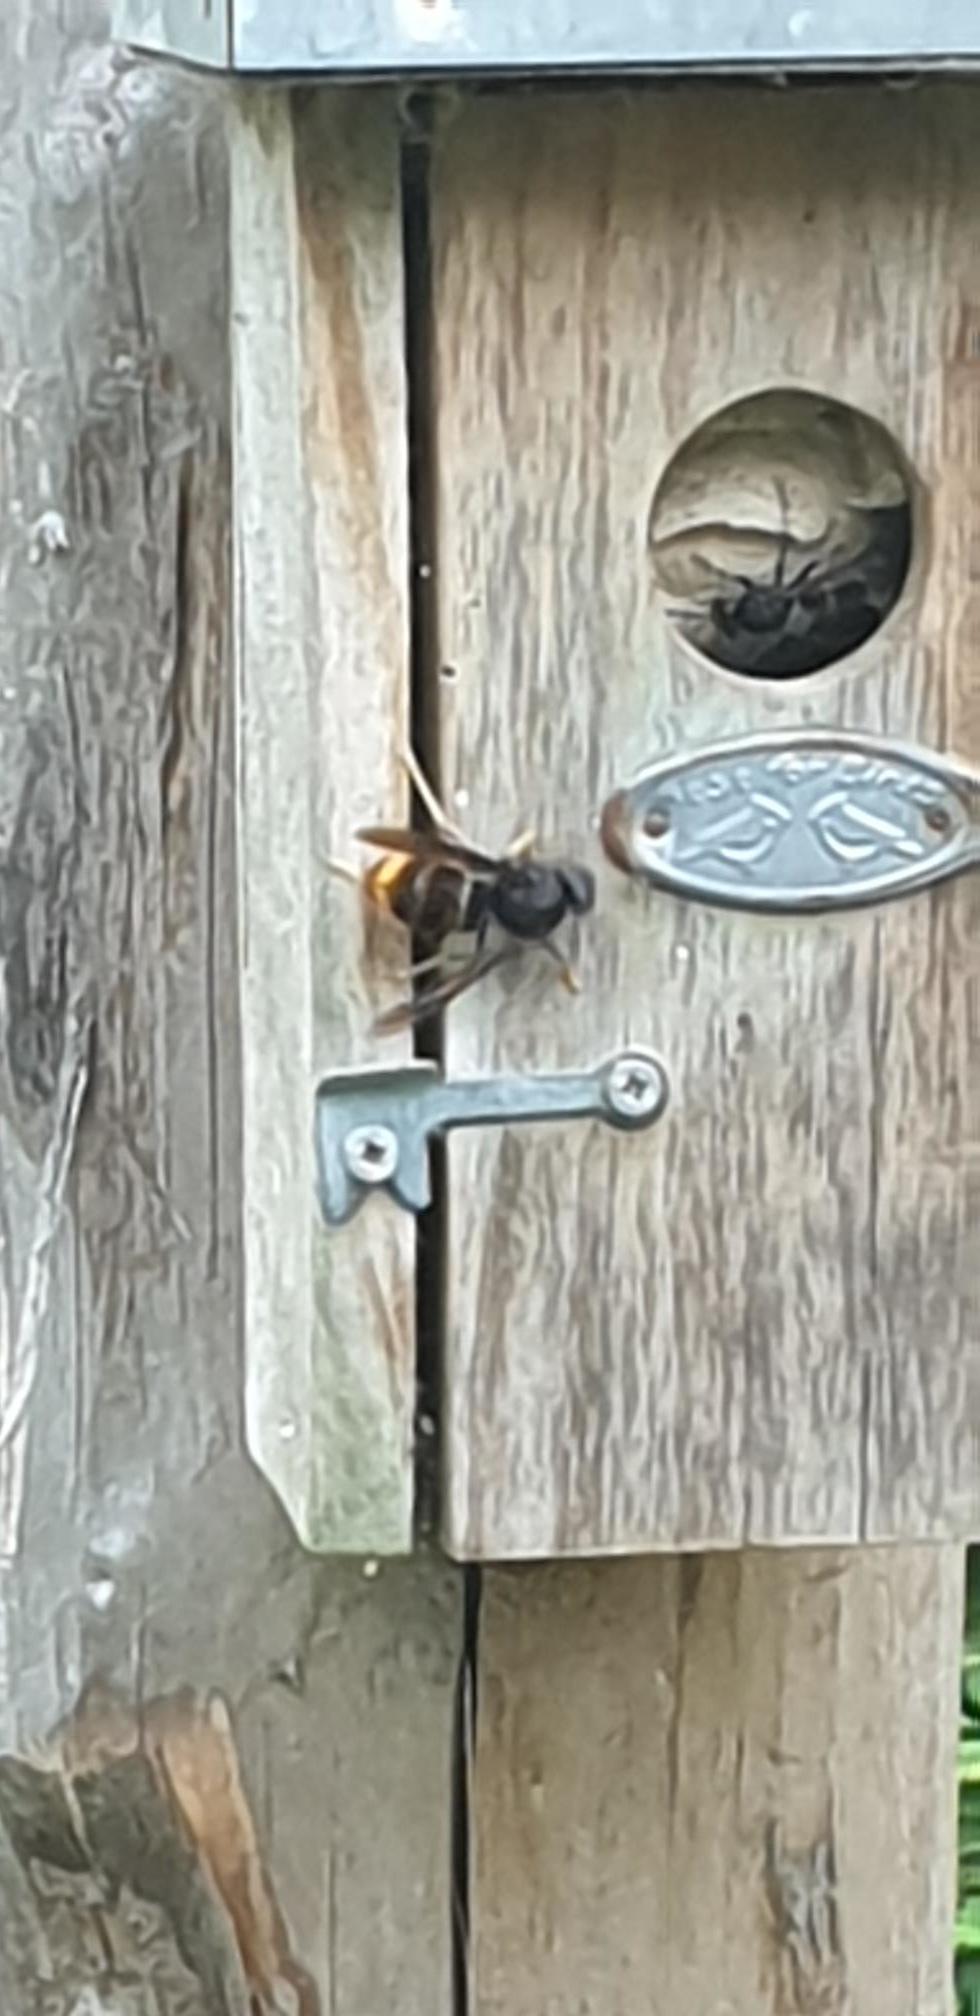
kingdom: Animalia
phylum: Arthropoda
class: Insecta
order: Hymenoptera
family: Vespidae
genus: Vespa
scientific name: Vespa velutina
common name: Asian hornet
